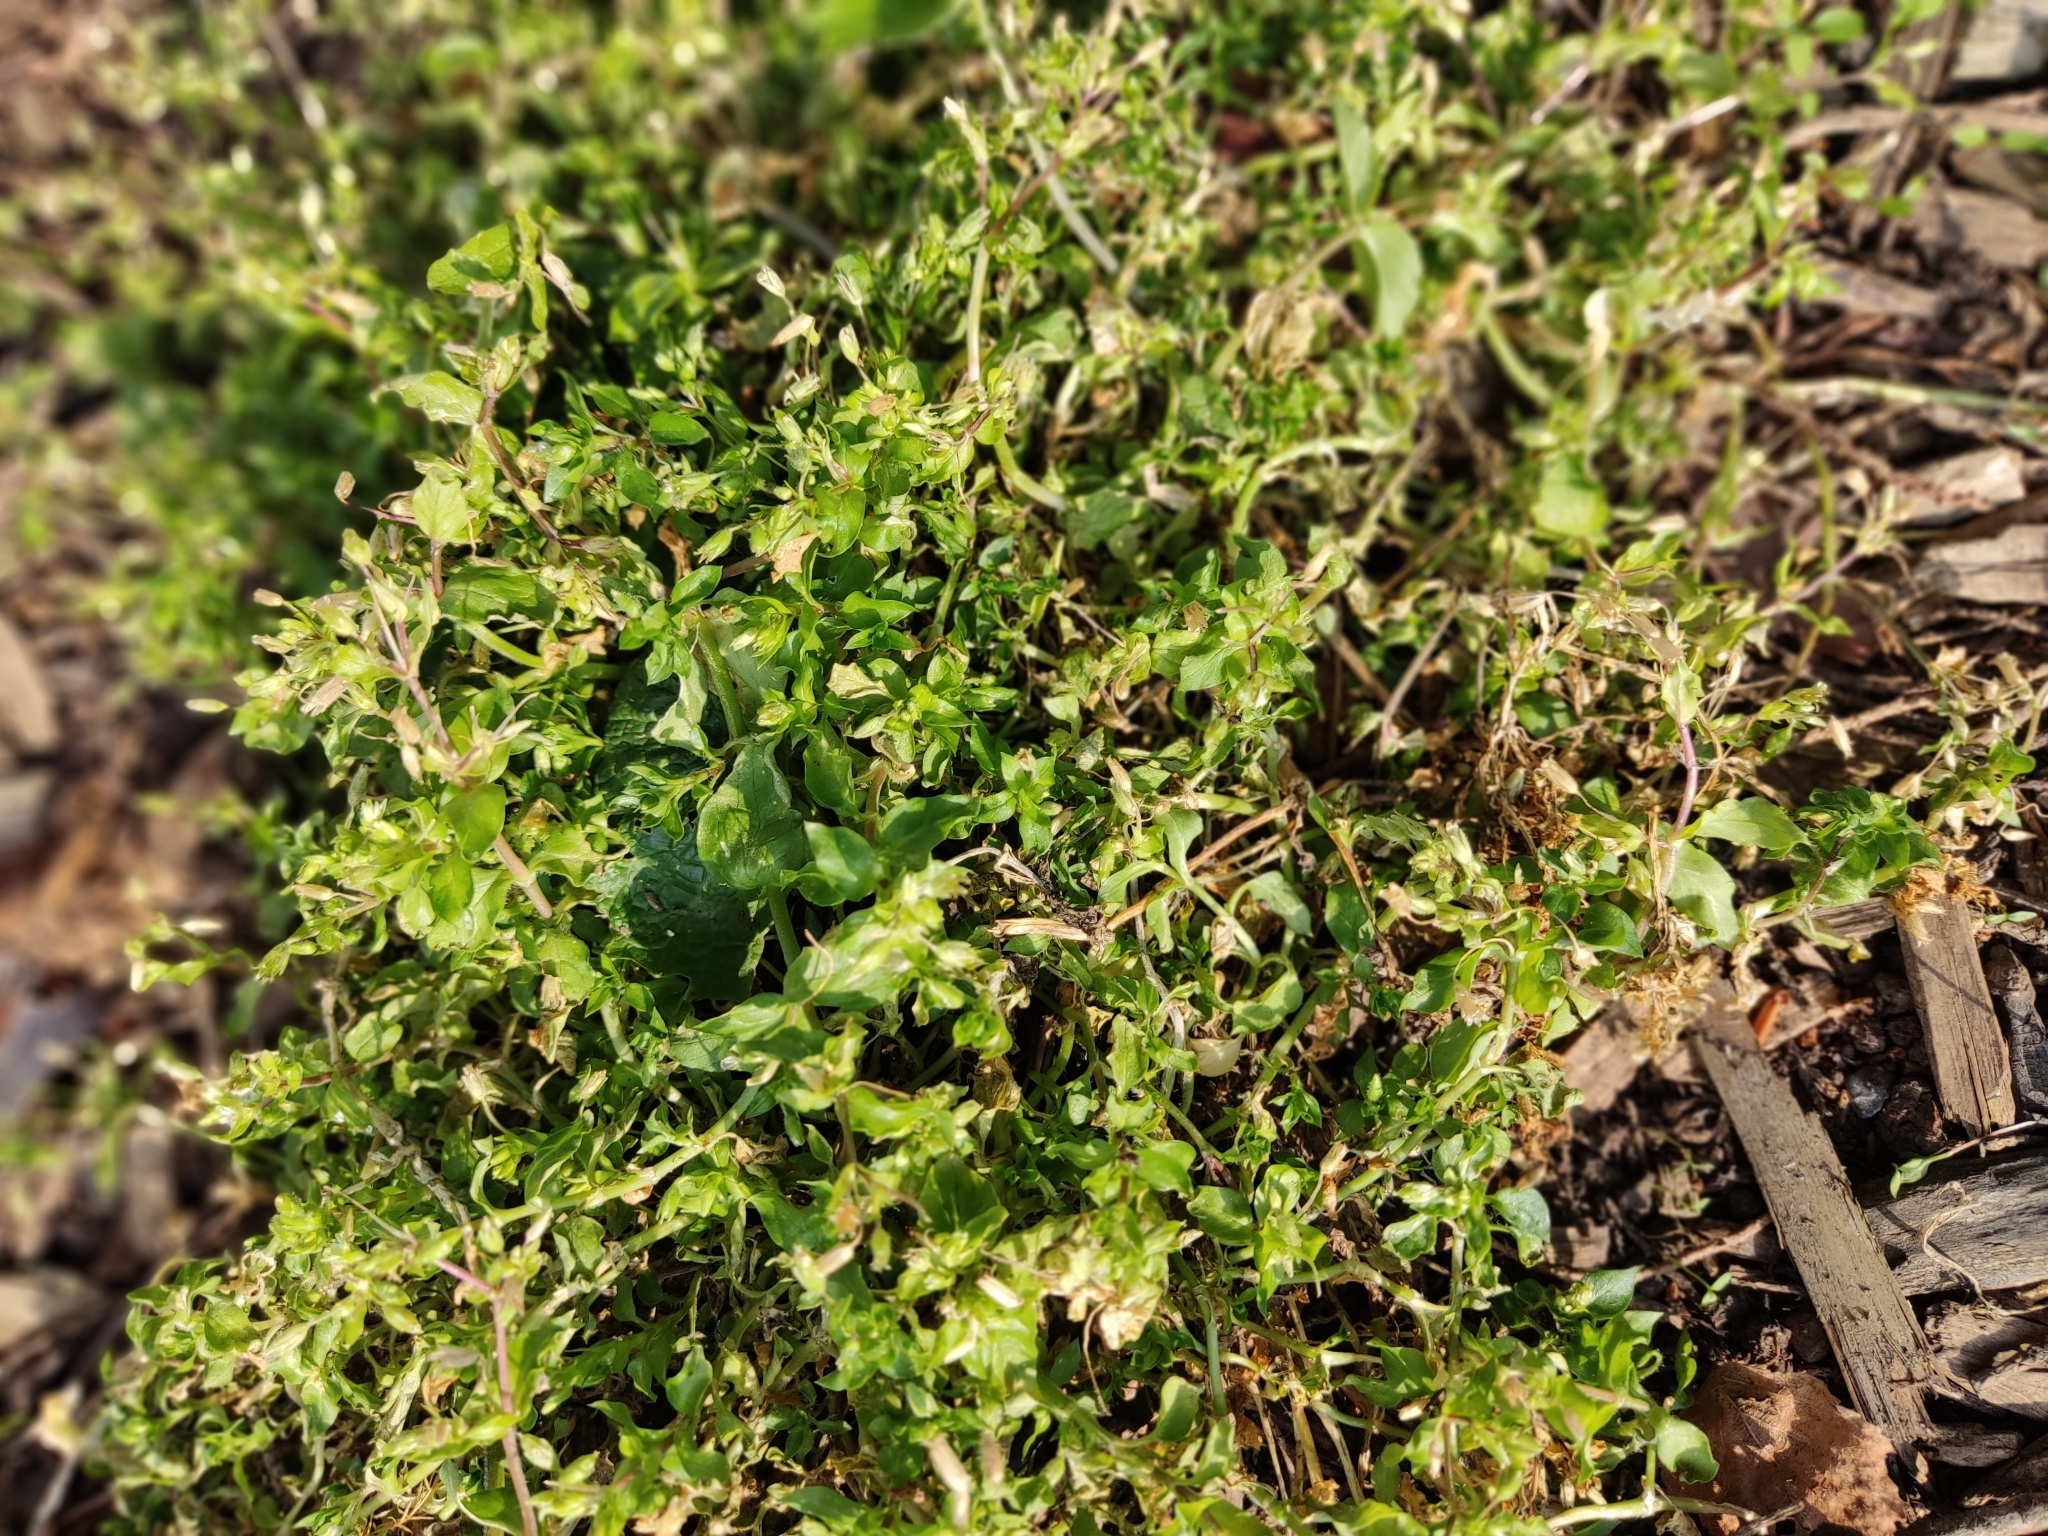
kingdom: Plantae
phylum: Tracheophyta
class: Magnoliopsida
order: Caryophyllales
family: Caryophyllaceae
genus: Stellaria
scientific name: Stellaria media
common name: Common chickweed
